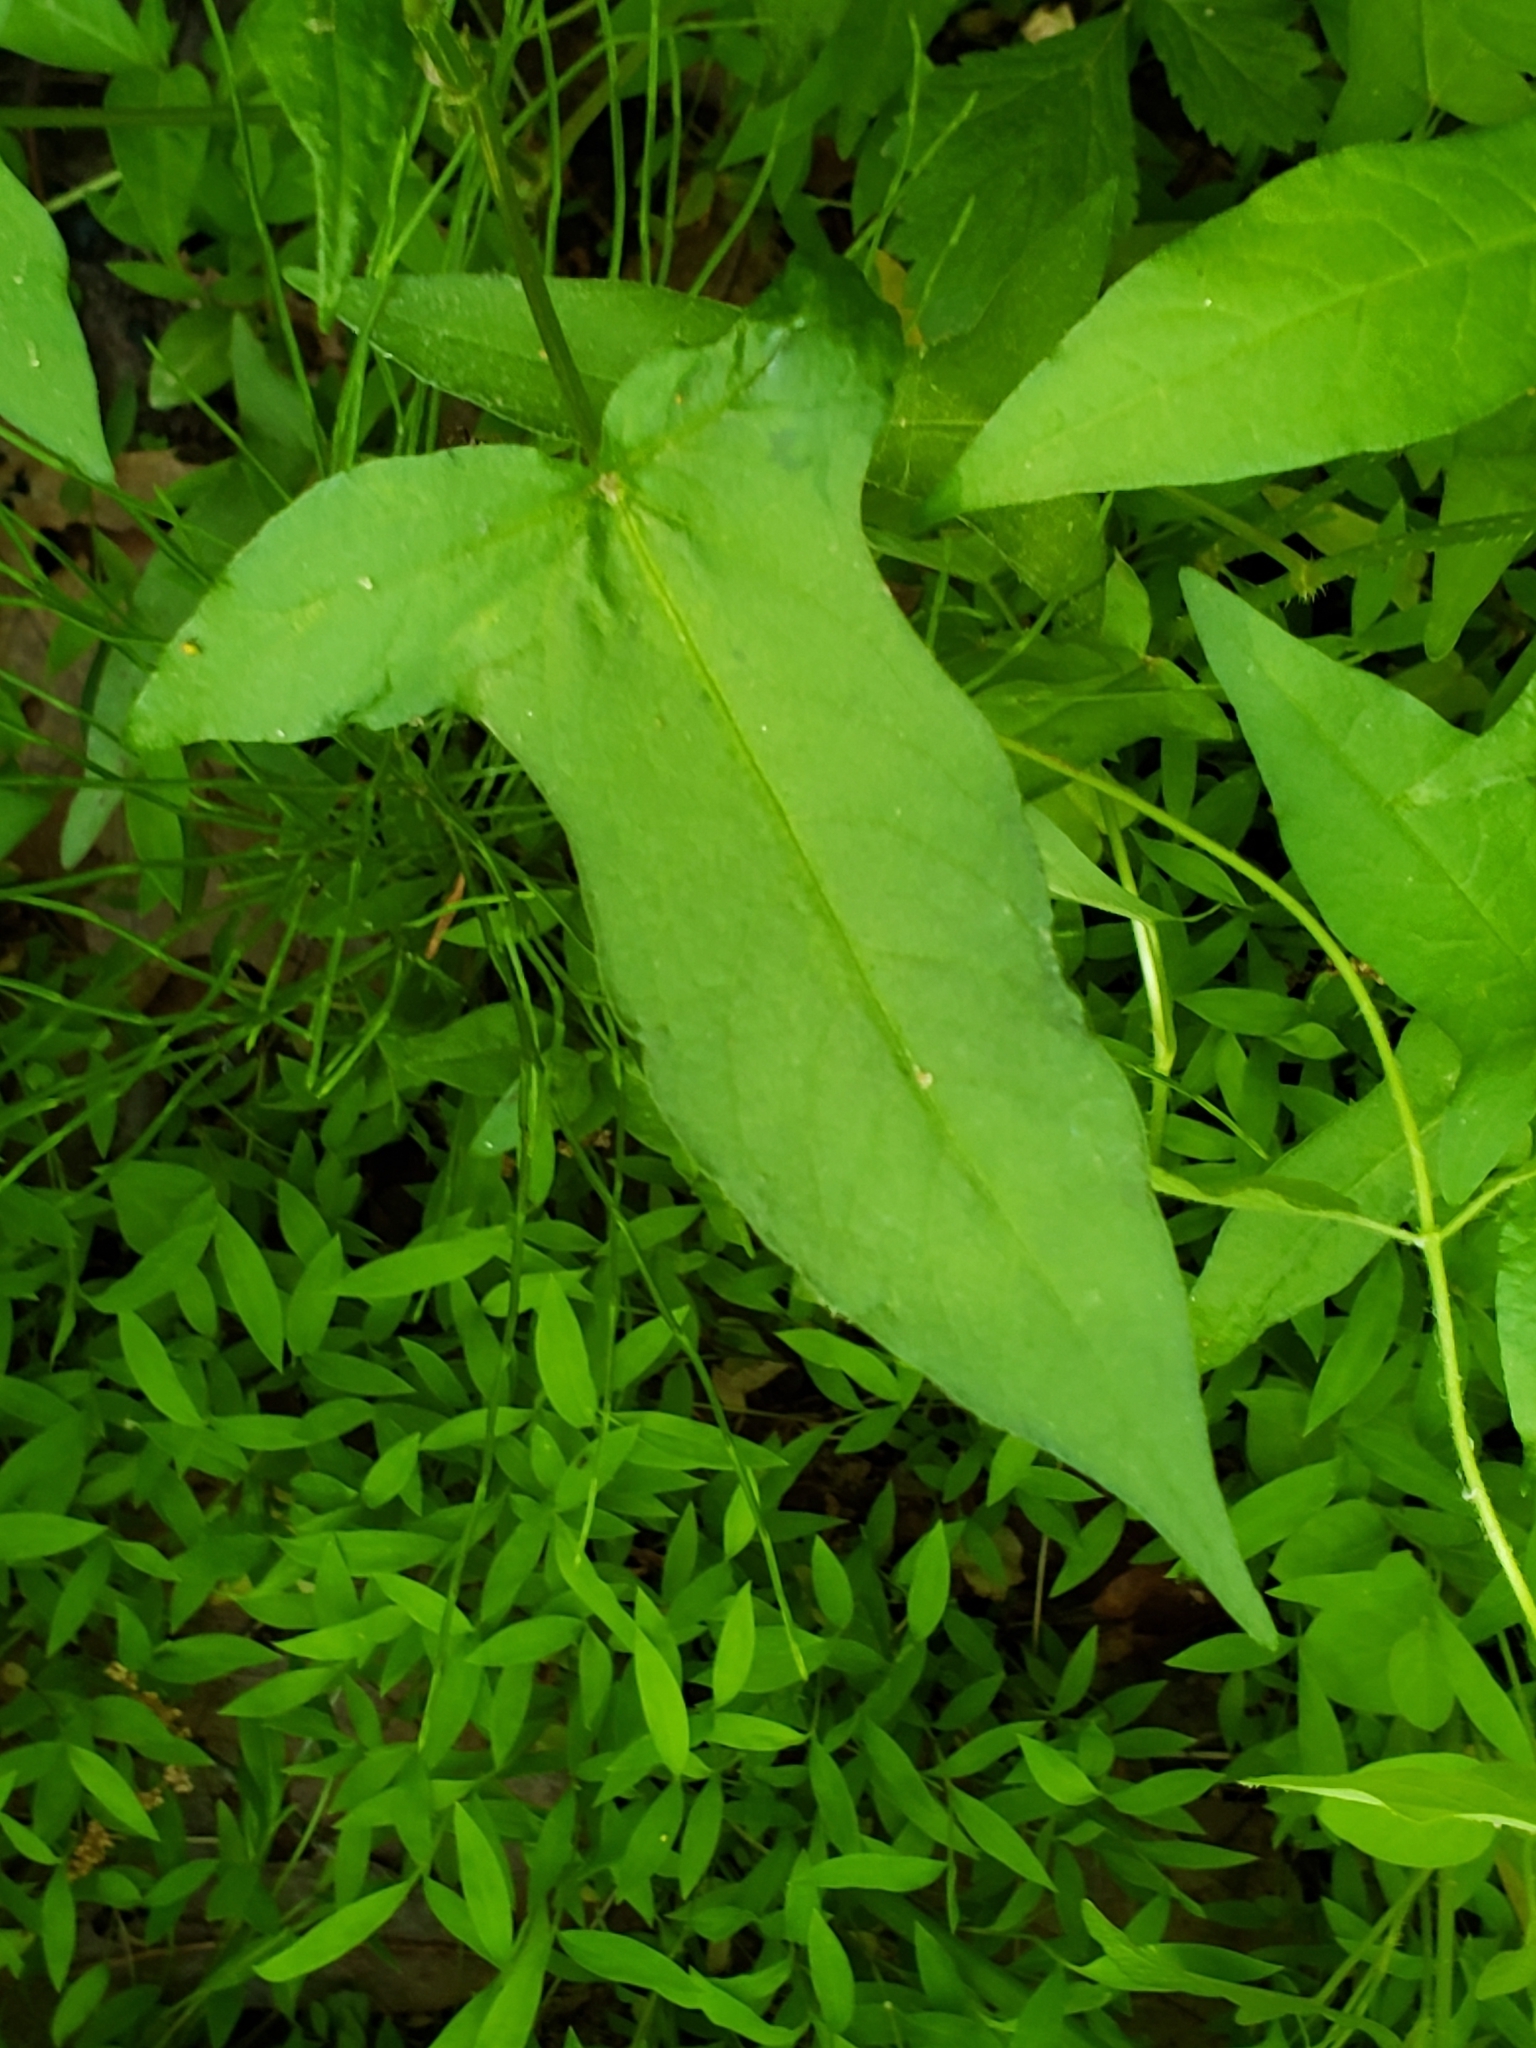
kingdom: Plantae
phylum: Tracheophyta
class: Magnoliopsida
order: Caryophyllales
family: Polygonaceae
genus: Persicaria
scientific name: Persicaria arifolia
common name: Halberd-leaved tear-thumb
